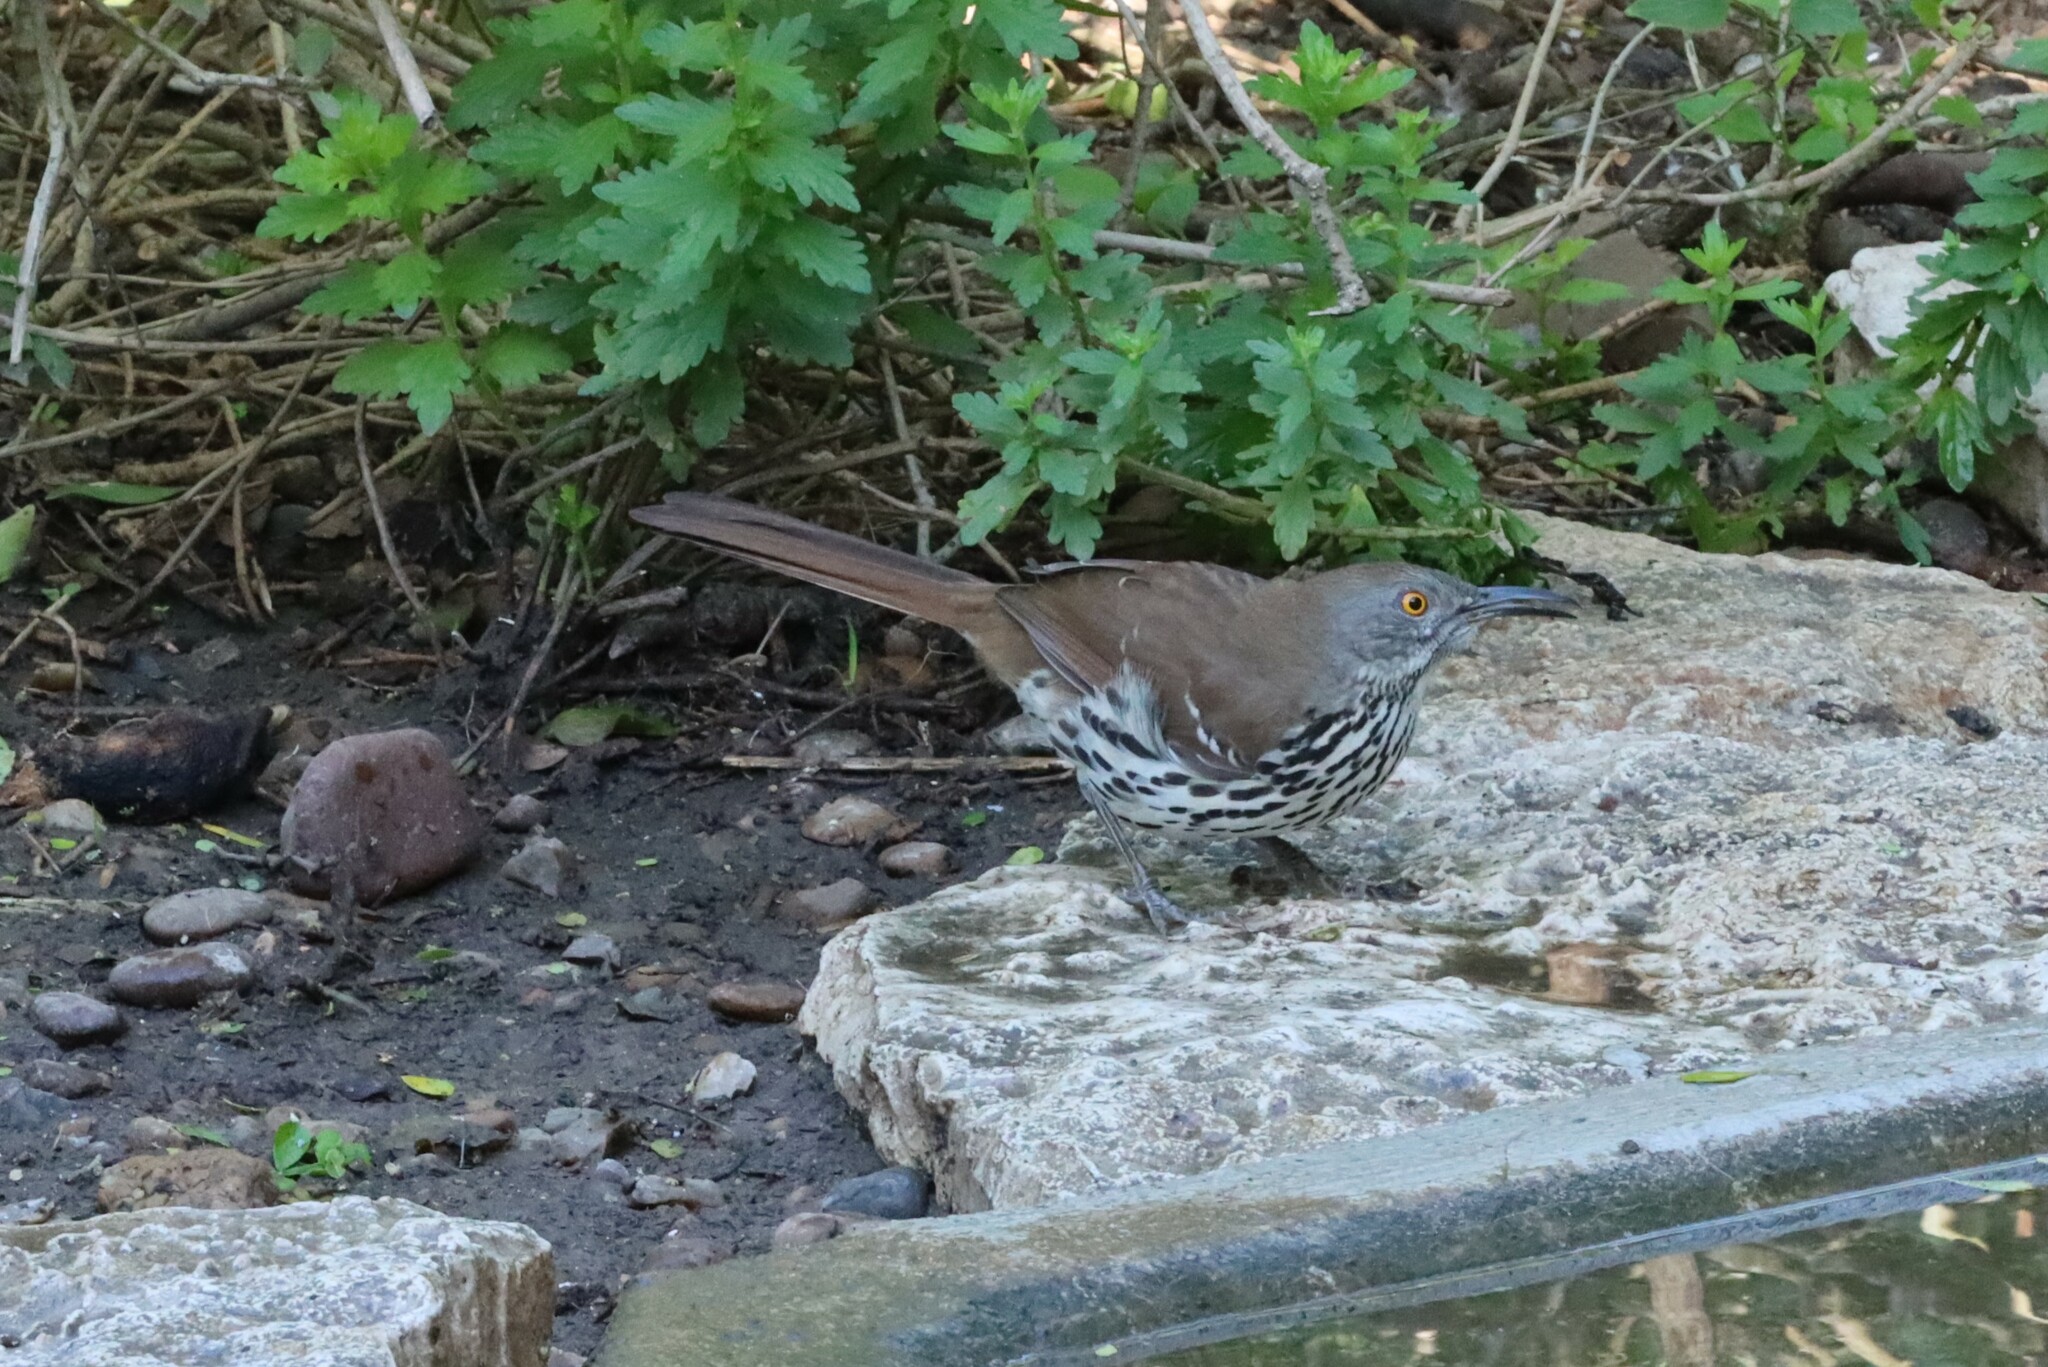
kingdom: Animalia
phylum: Chordata
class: Aves
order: Passeriformes
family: Mimidae
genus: Toxostoma
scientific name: Toxostoma longirostre
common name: Long-billed thrasher
